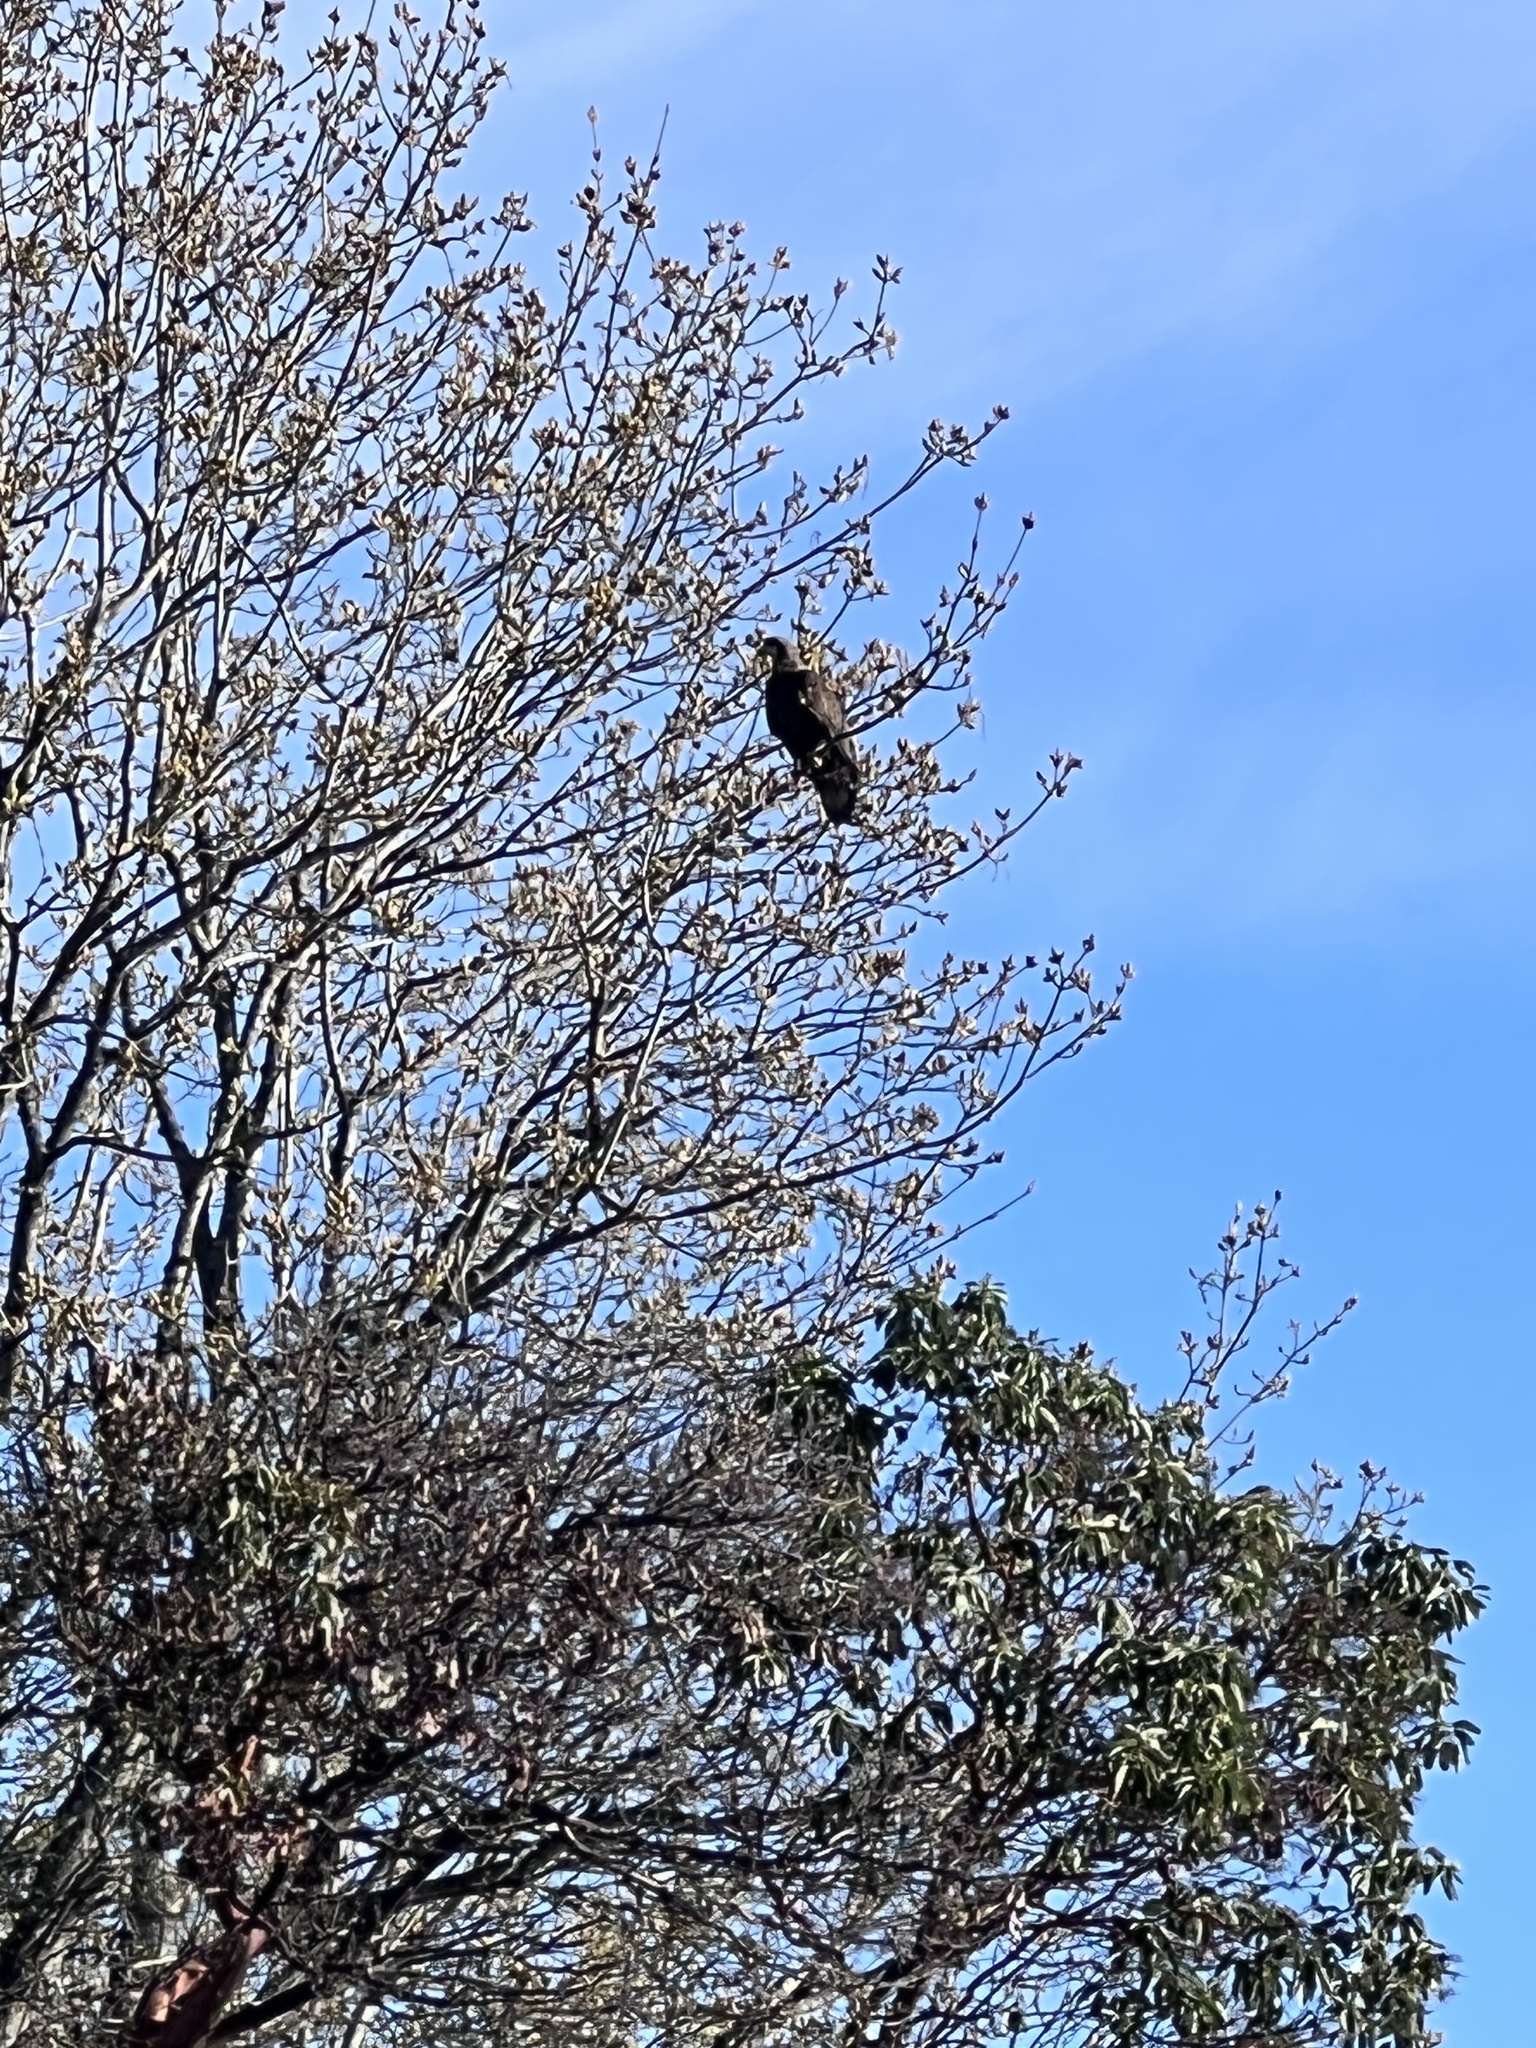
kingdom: Animalia
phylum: Chordata
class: Aves
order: Accipitriformes
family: Accipitridae
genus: Haliaeetus
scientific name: Haliaeetus leucocephalus
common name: Bald eagle
